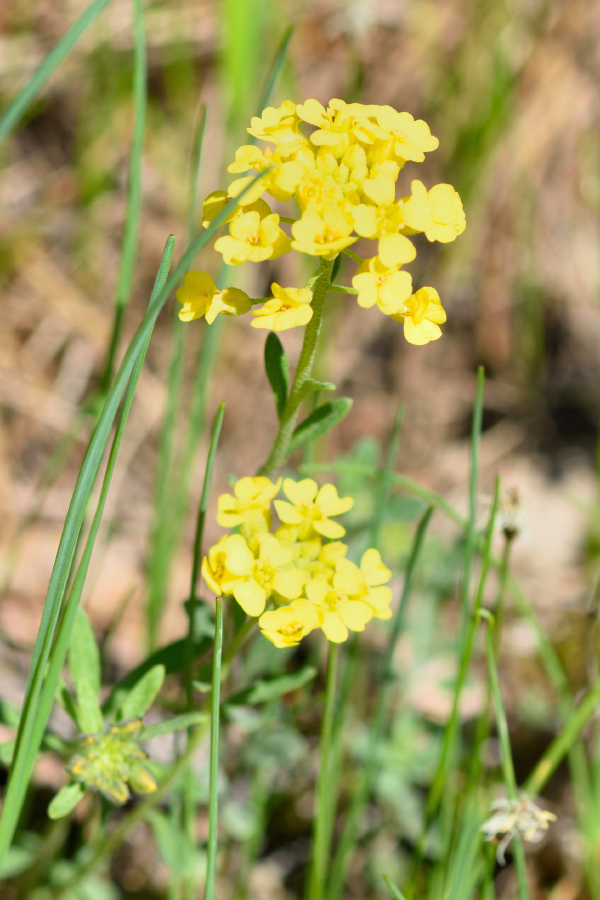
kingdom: Plantae
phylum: Tracheophyta
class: Magnoliopsida
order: Brassicales
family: Brassicaceae
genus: Alyssum
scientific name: Alyssum gmelinii
